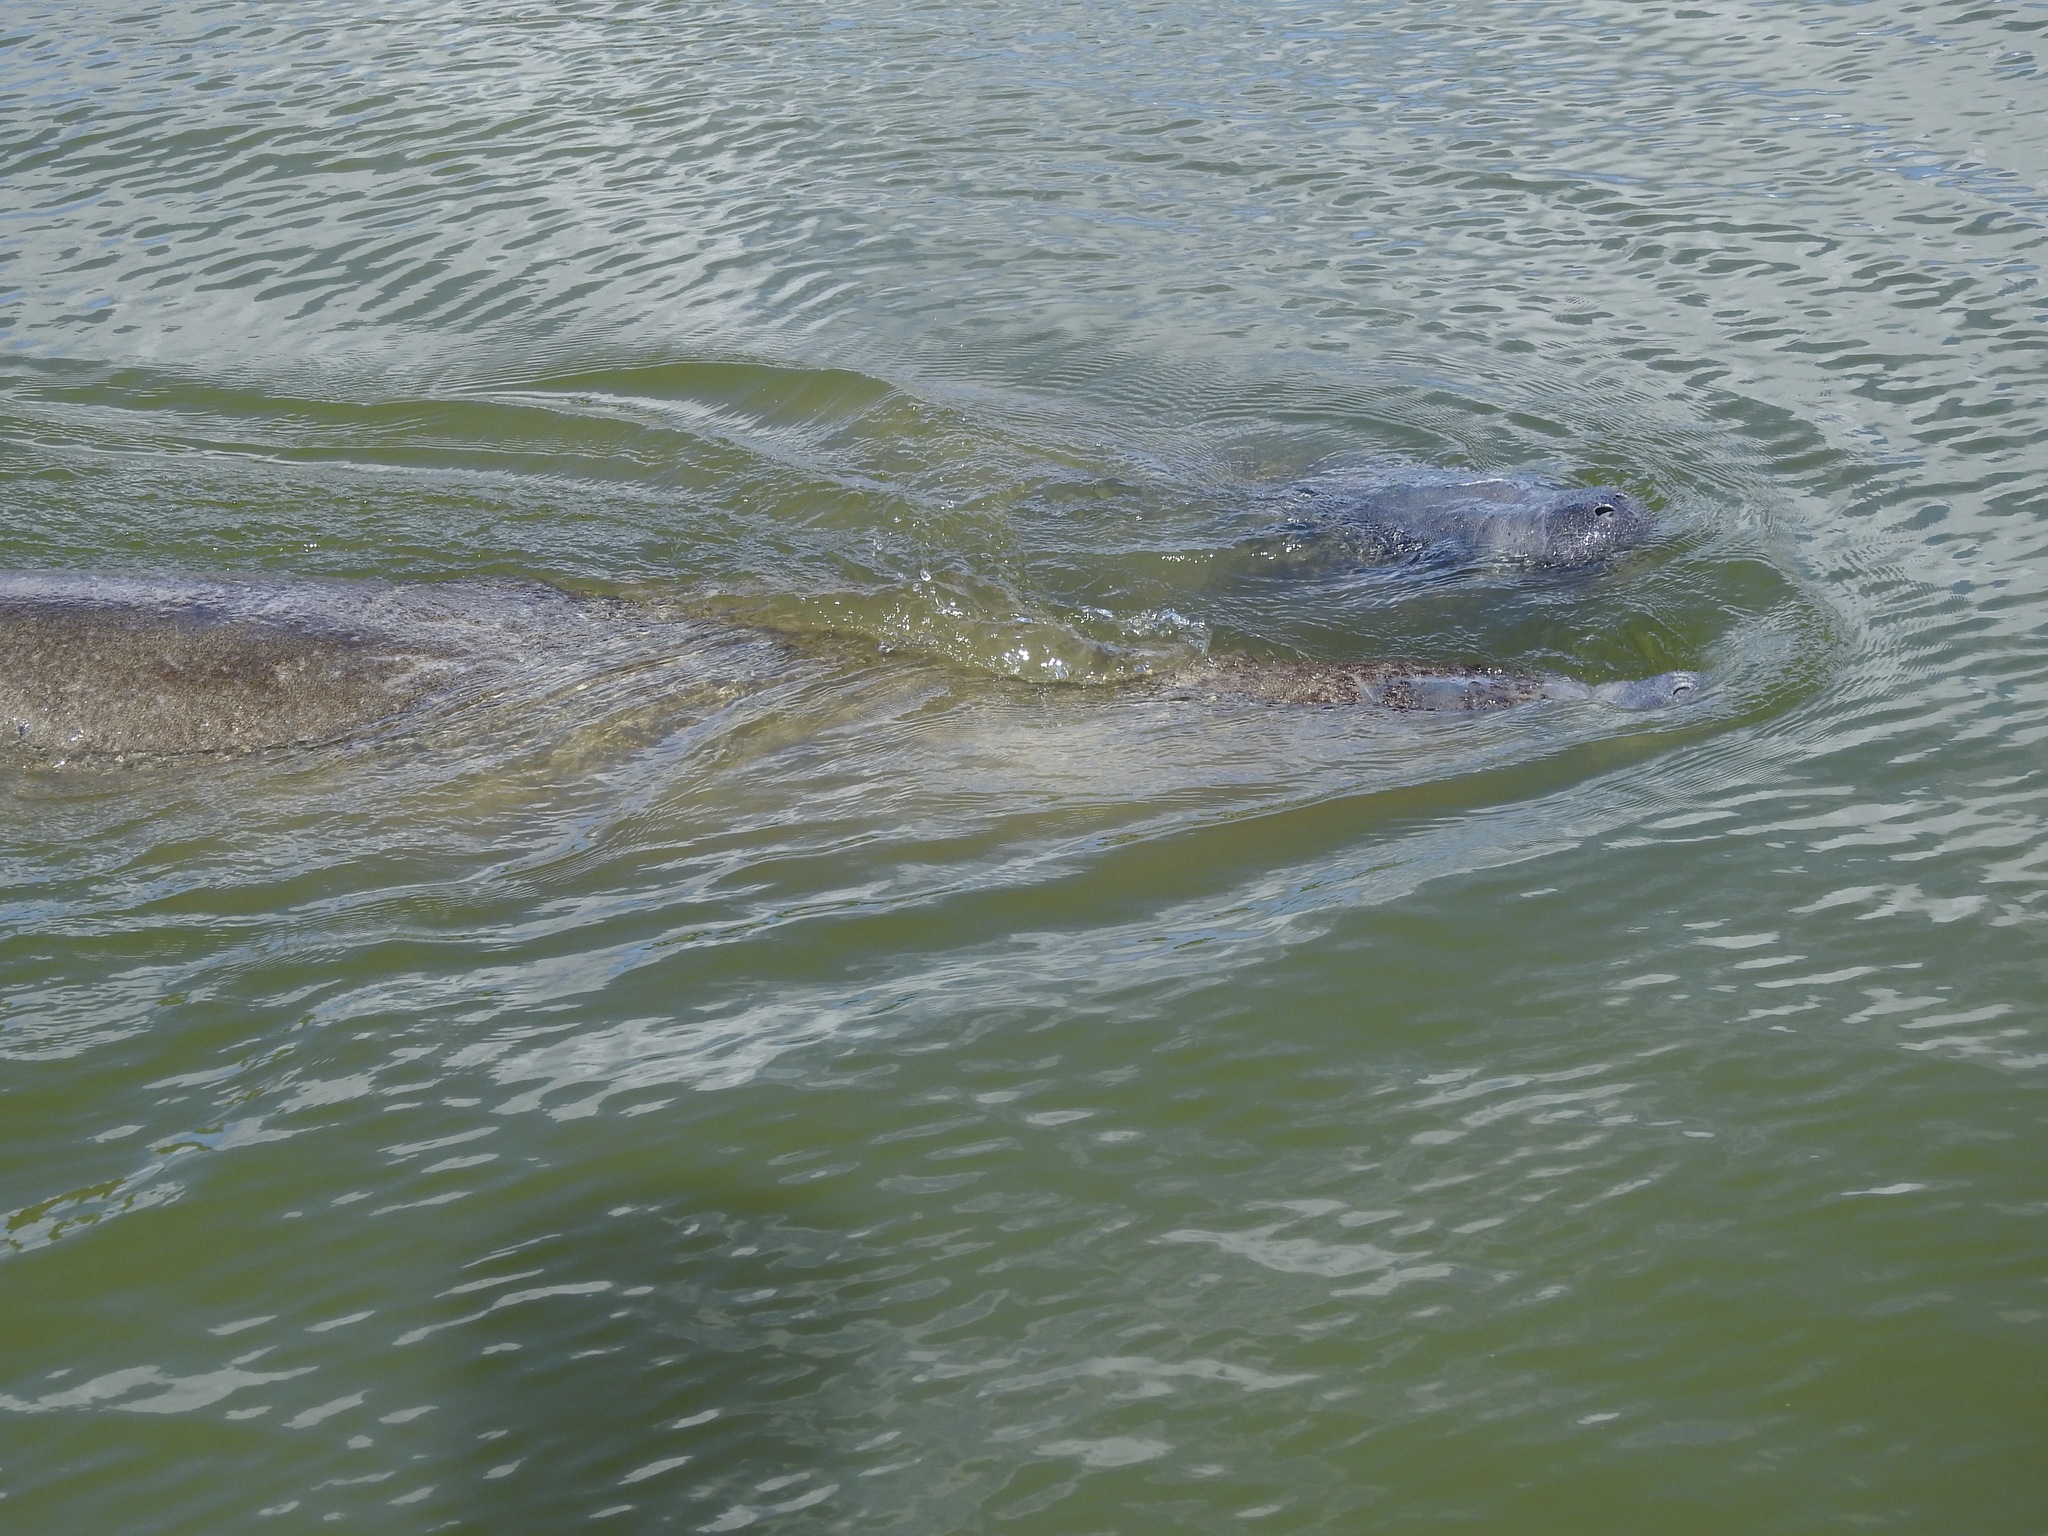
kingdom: Animalia
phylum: Chordata
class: Mammalia
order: Sirenia
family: Trichechidae
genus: Trichechus
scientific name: Trichechus manatus
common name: West indian manatee
